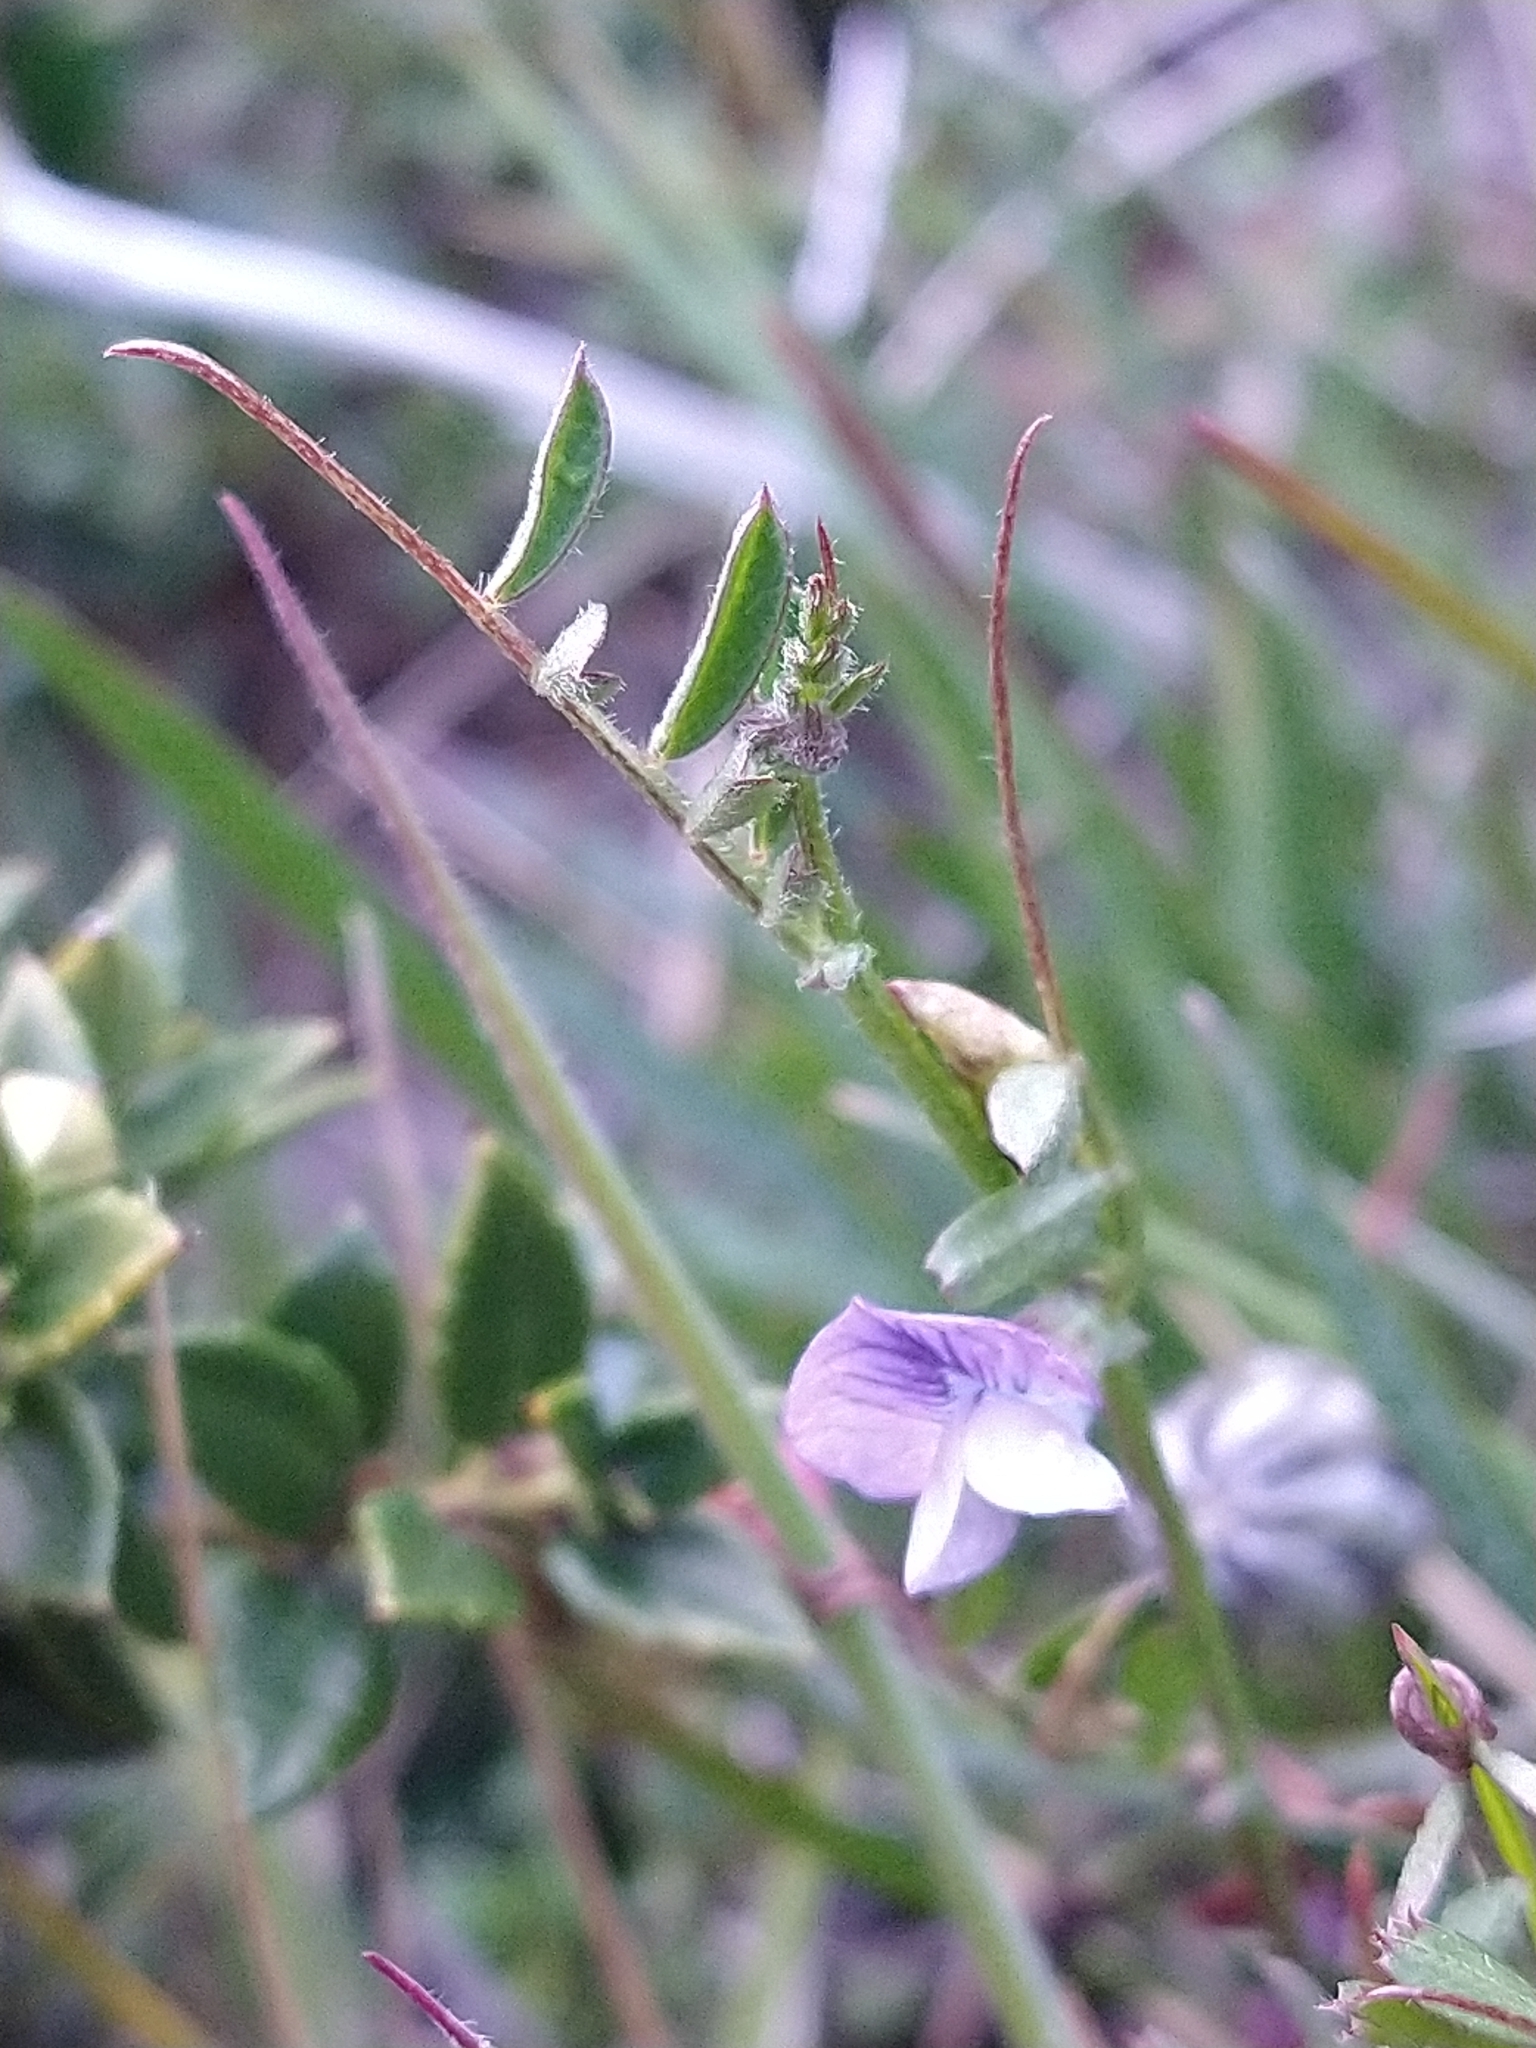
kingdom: Plantae
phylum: Tracheophyta
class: Magnoliopsida
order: Fabales
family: Fabaceae
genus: Vicia
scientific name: Vicia magellanica
